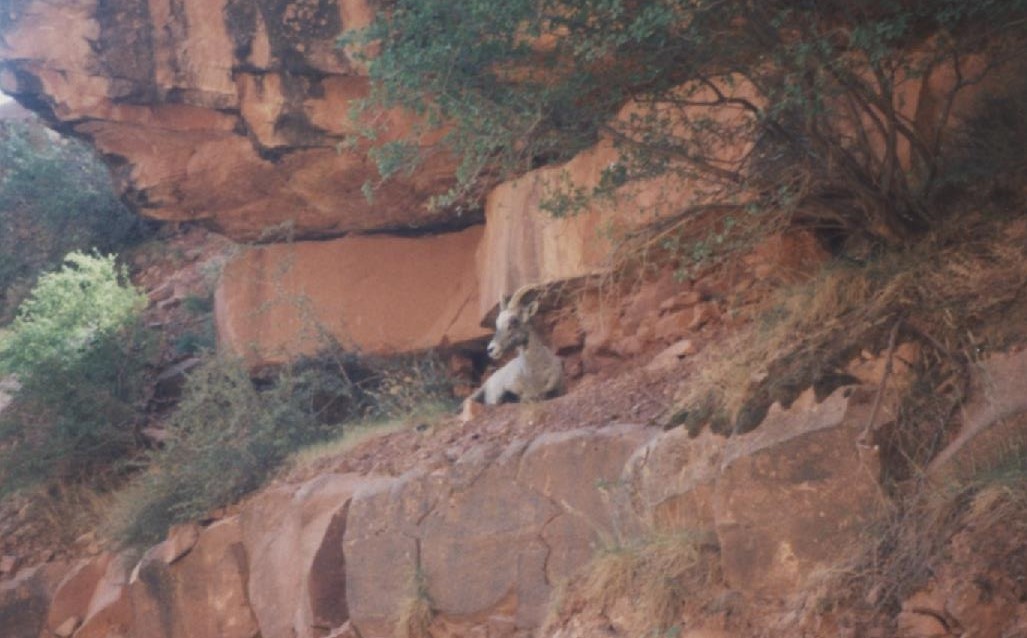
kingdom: Animalia
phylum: Chordata
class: Mammalia
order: Artiodactyla
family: Bovidae
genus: Ovis
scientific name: Ovis canadensis
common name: Bighorn sheep
